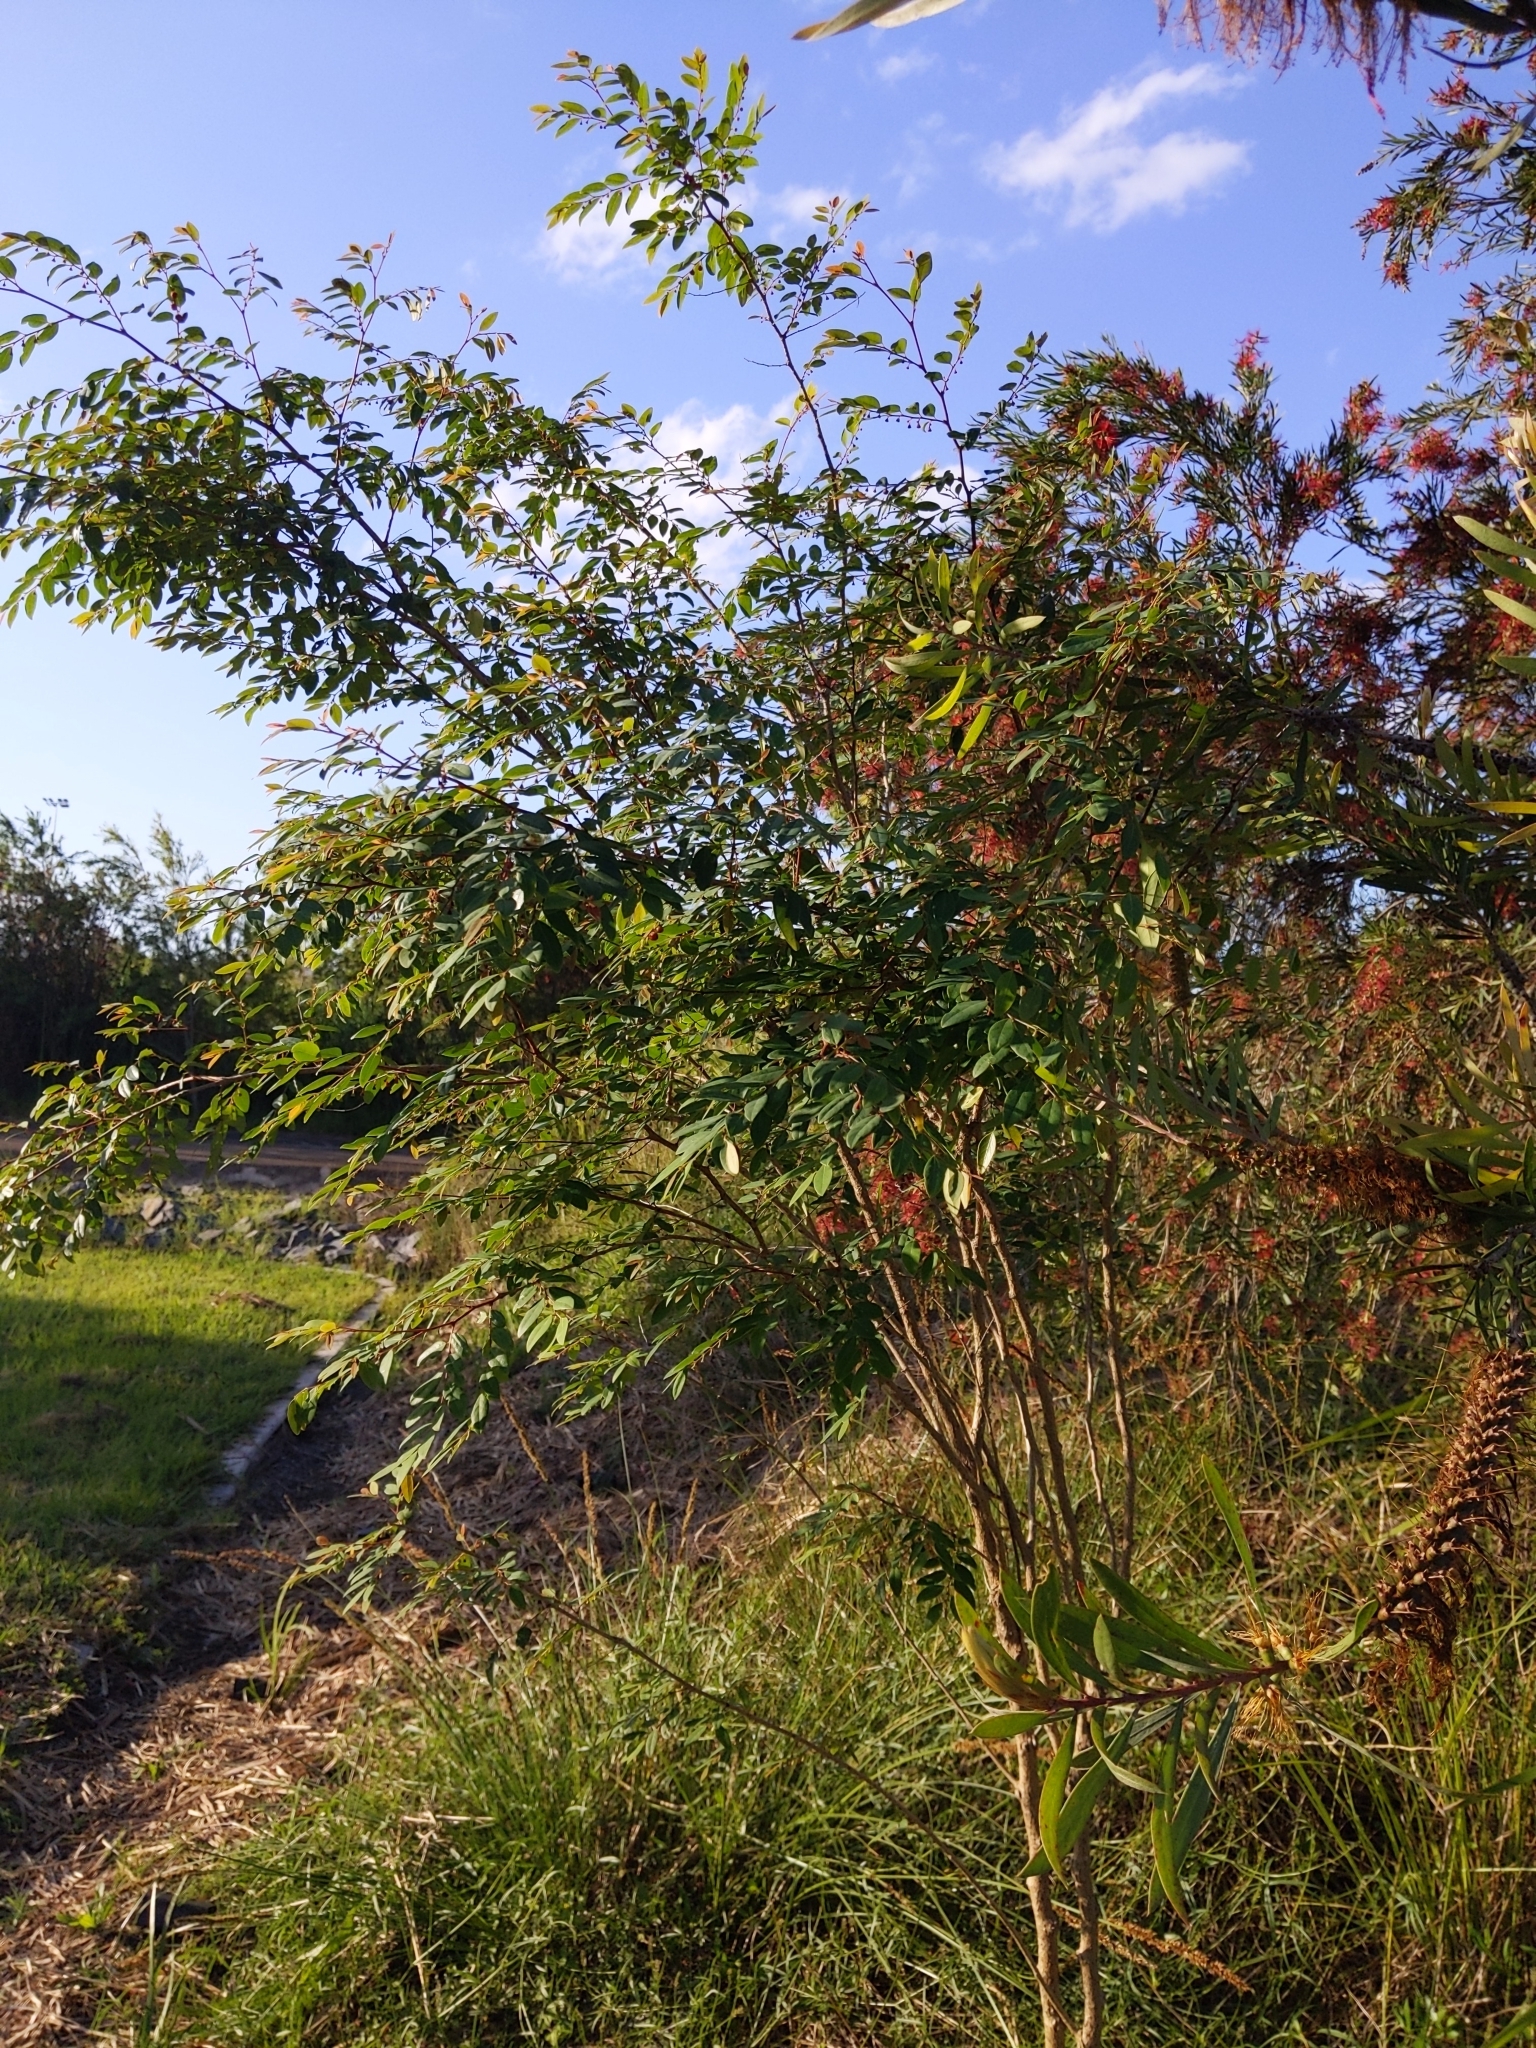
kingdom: Plantae
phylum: Tracheophyta
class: Magnoliopsida
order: Malpighiales
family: Phyllanthaceae
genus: Breynia
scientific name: Breynia oblongifolia
